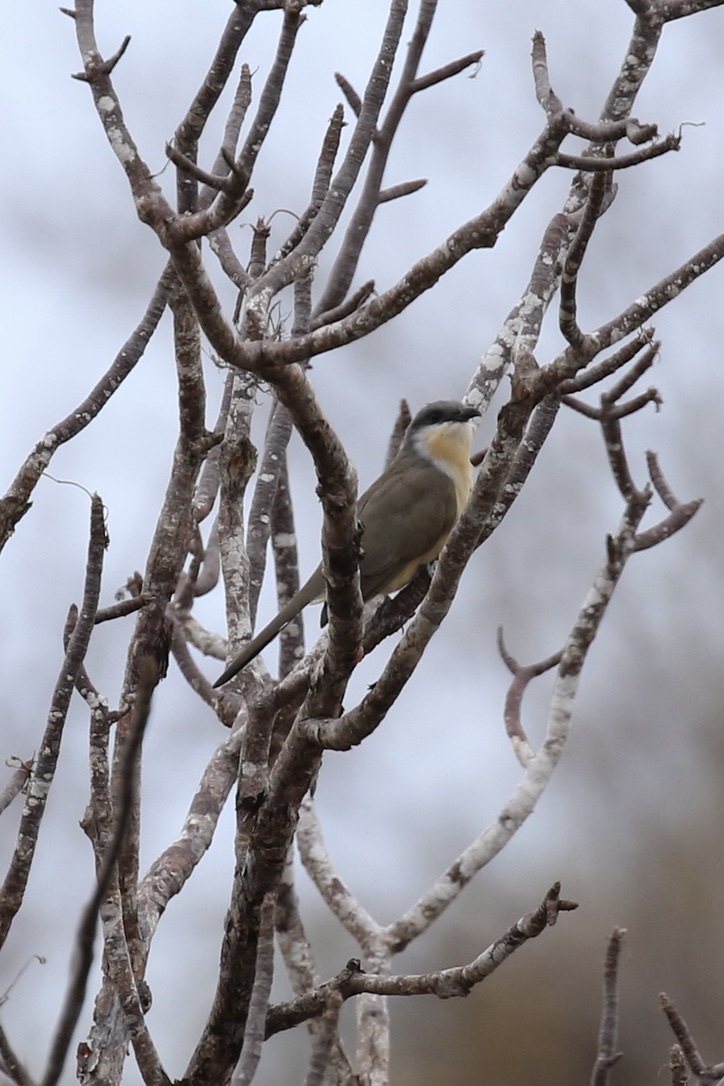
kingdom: Animalia
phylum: Chordata
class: Aves
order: Cuculiformes
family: Cuculidae
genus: Coccyzus
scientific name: Coccyzus melacoryphus
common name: Dark-billed cuckoo
